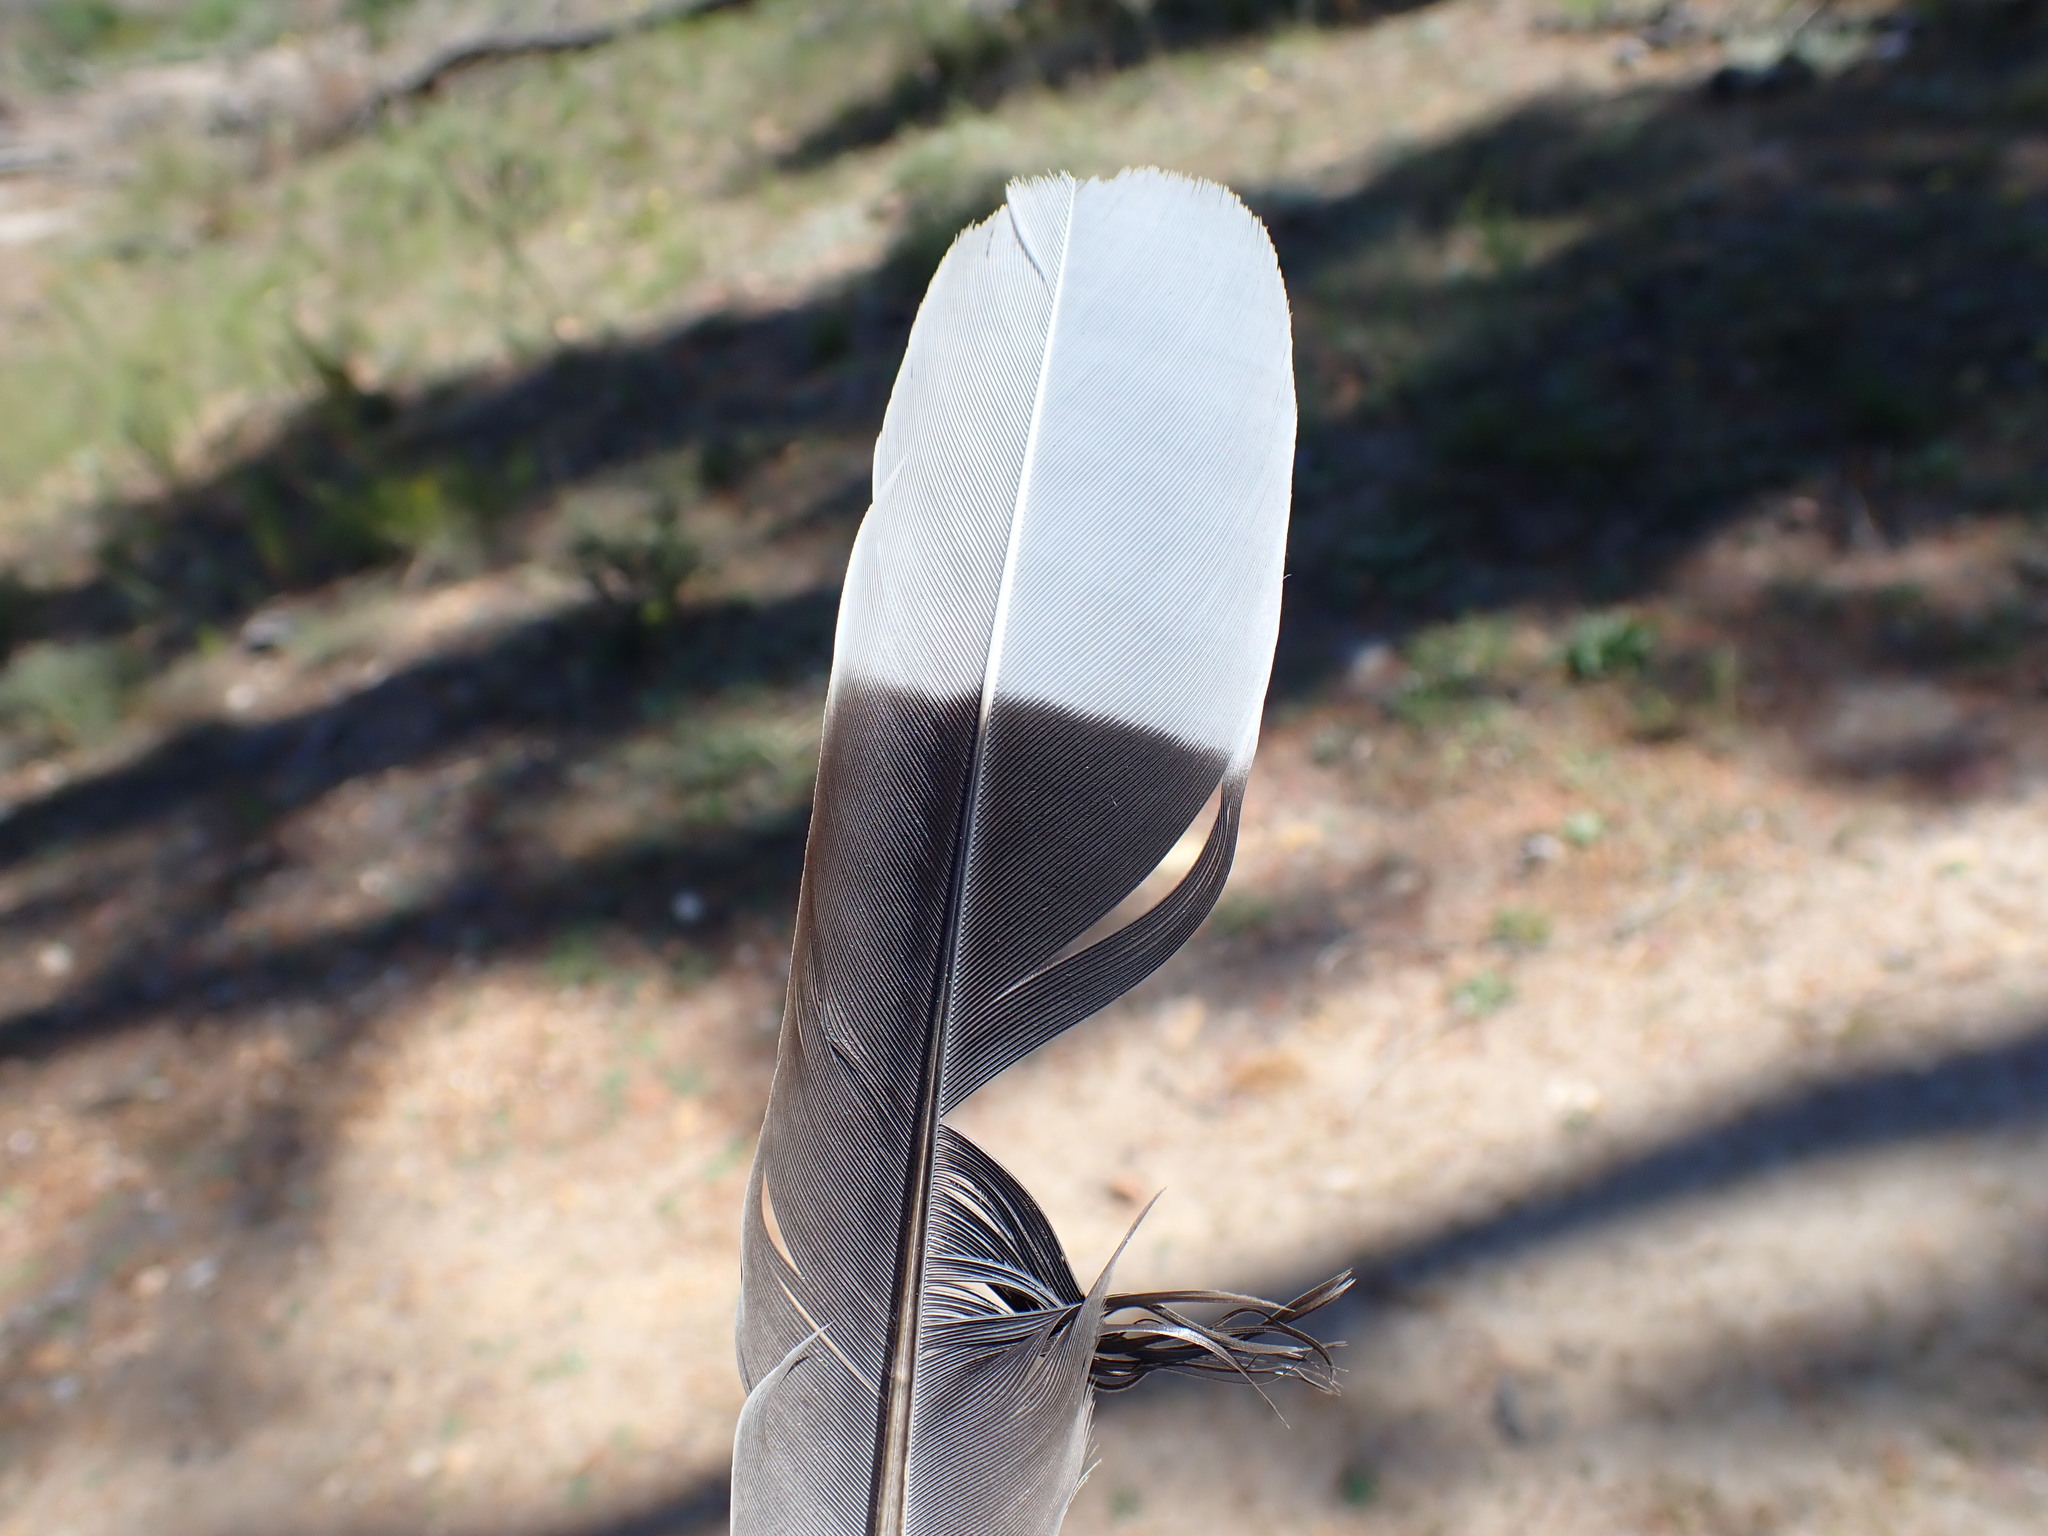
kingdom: Animalia
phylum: Chordata
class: Aves
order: Columbiformes
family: Columbidae
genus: Streptopelia
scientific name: Streptopelia semitorquata
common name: Red-eyed dove
